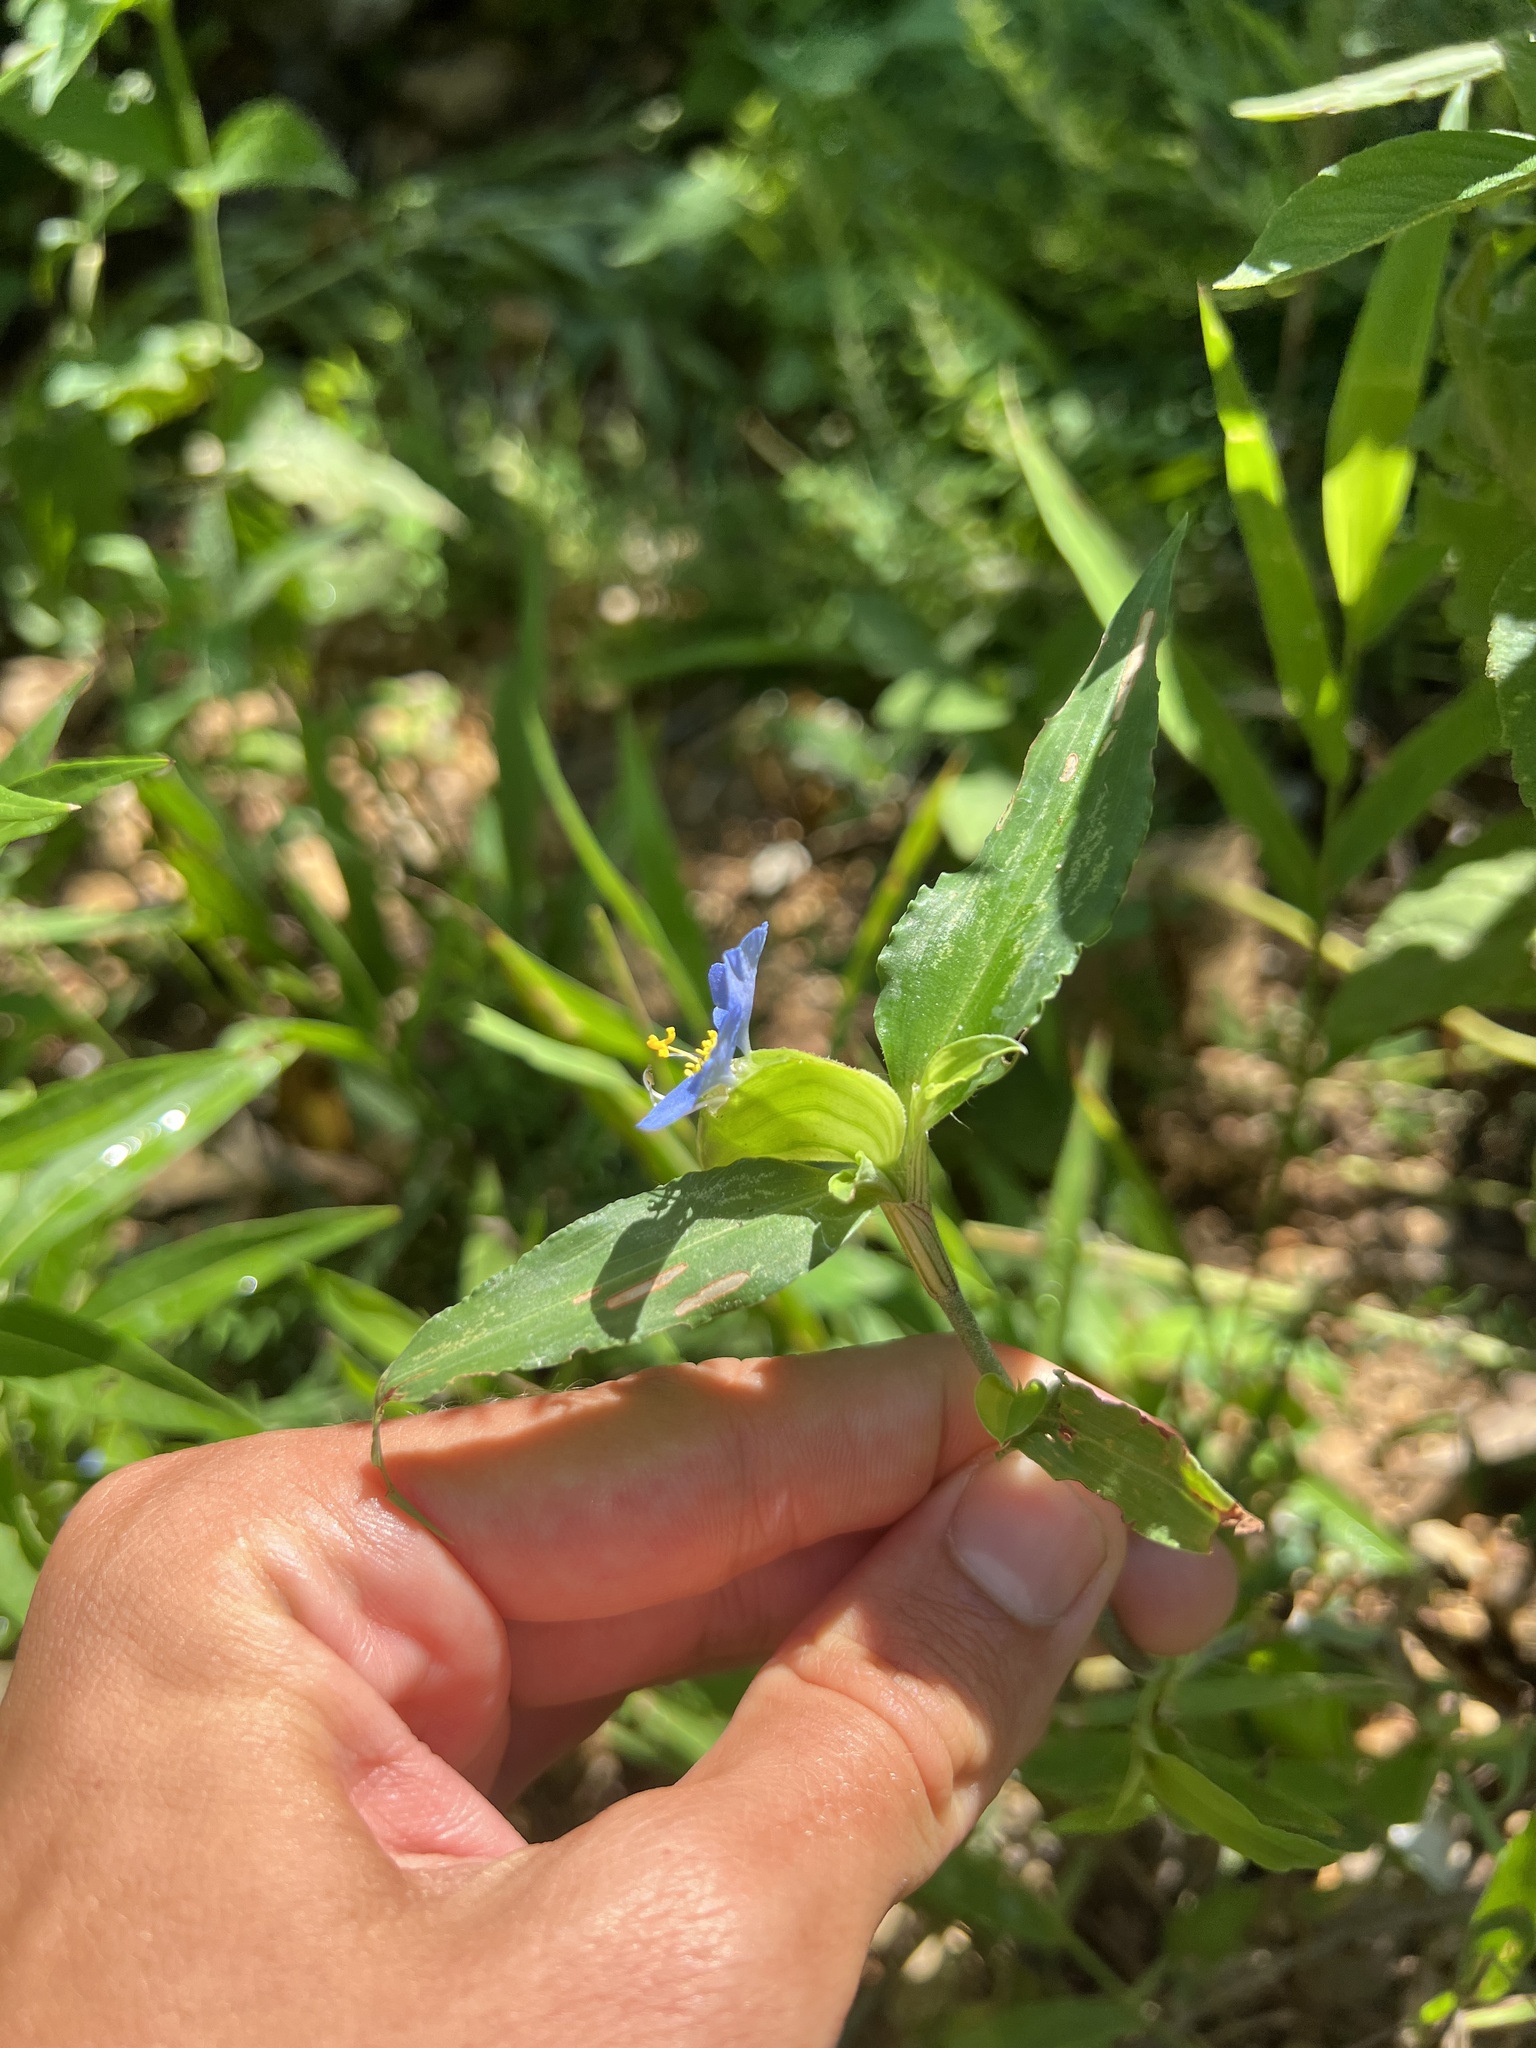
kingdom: Plantae
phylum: Tracheophyta
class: Liliopsida
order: Commelinales
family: Commelinaceae
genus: Commelina
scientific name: Commelina erecta
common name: Blousel blommetjie
